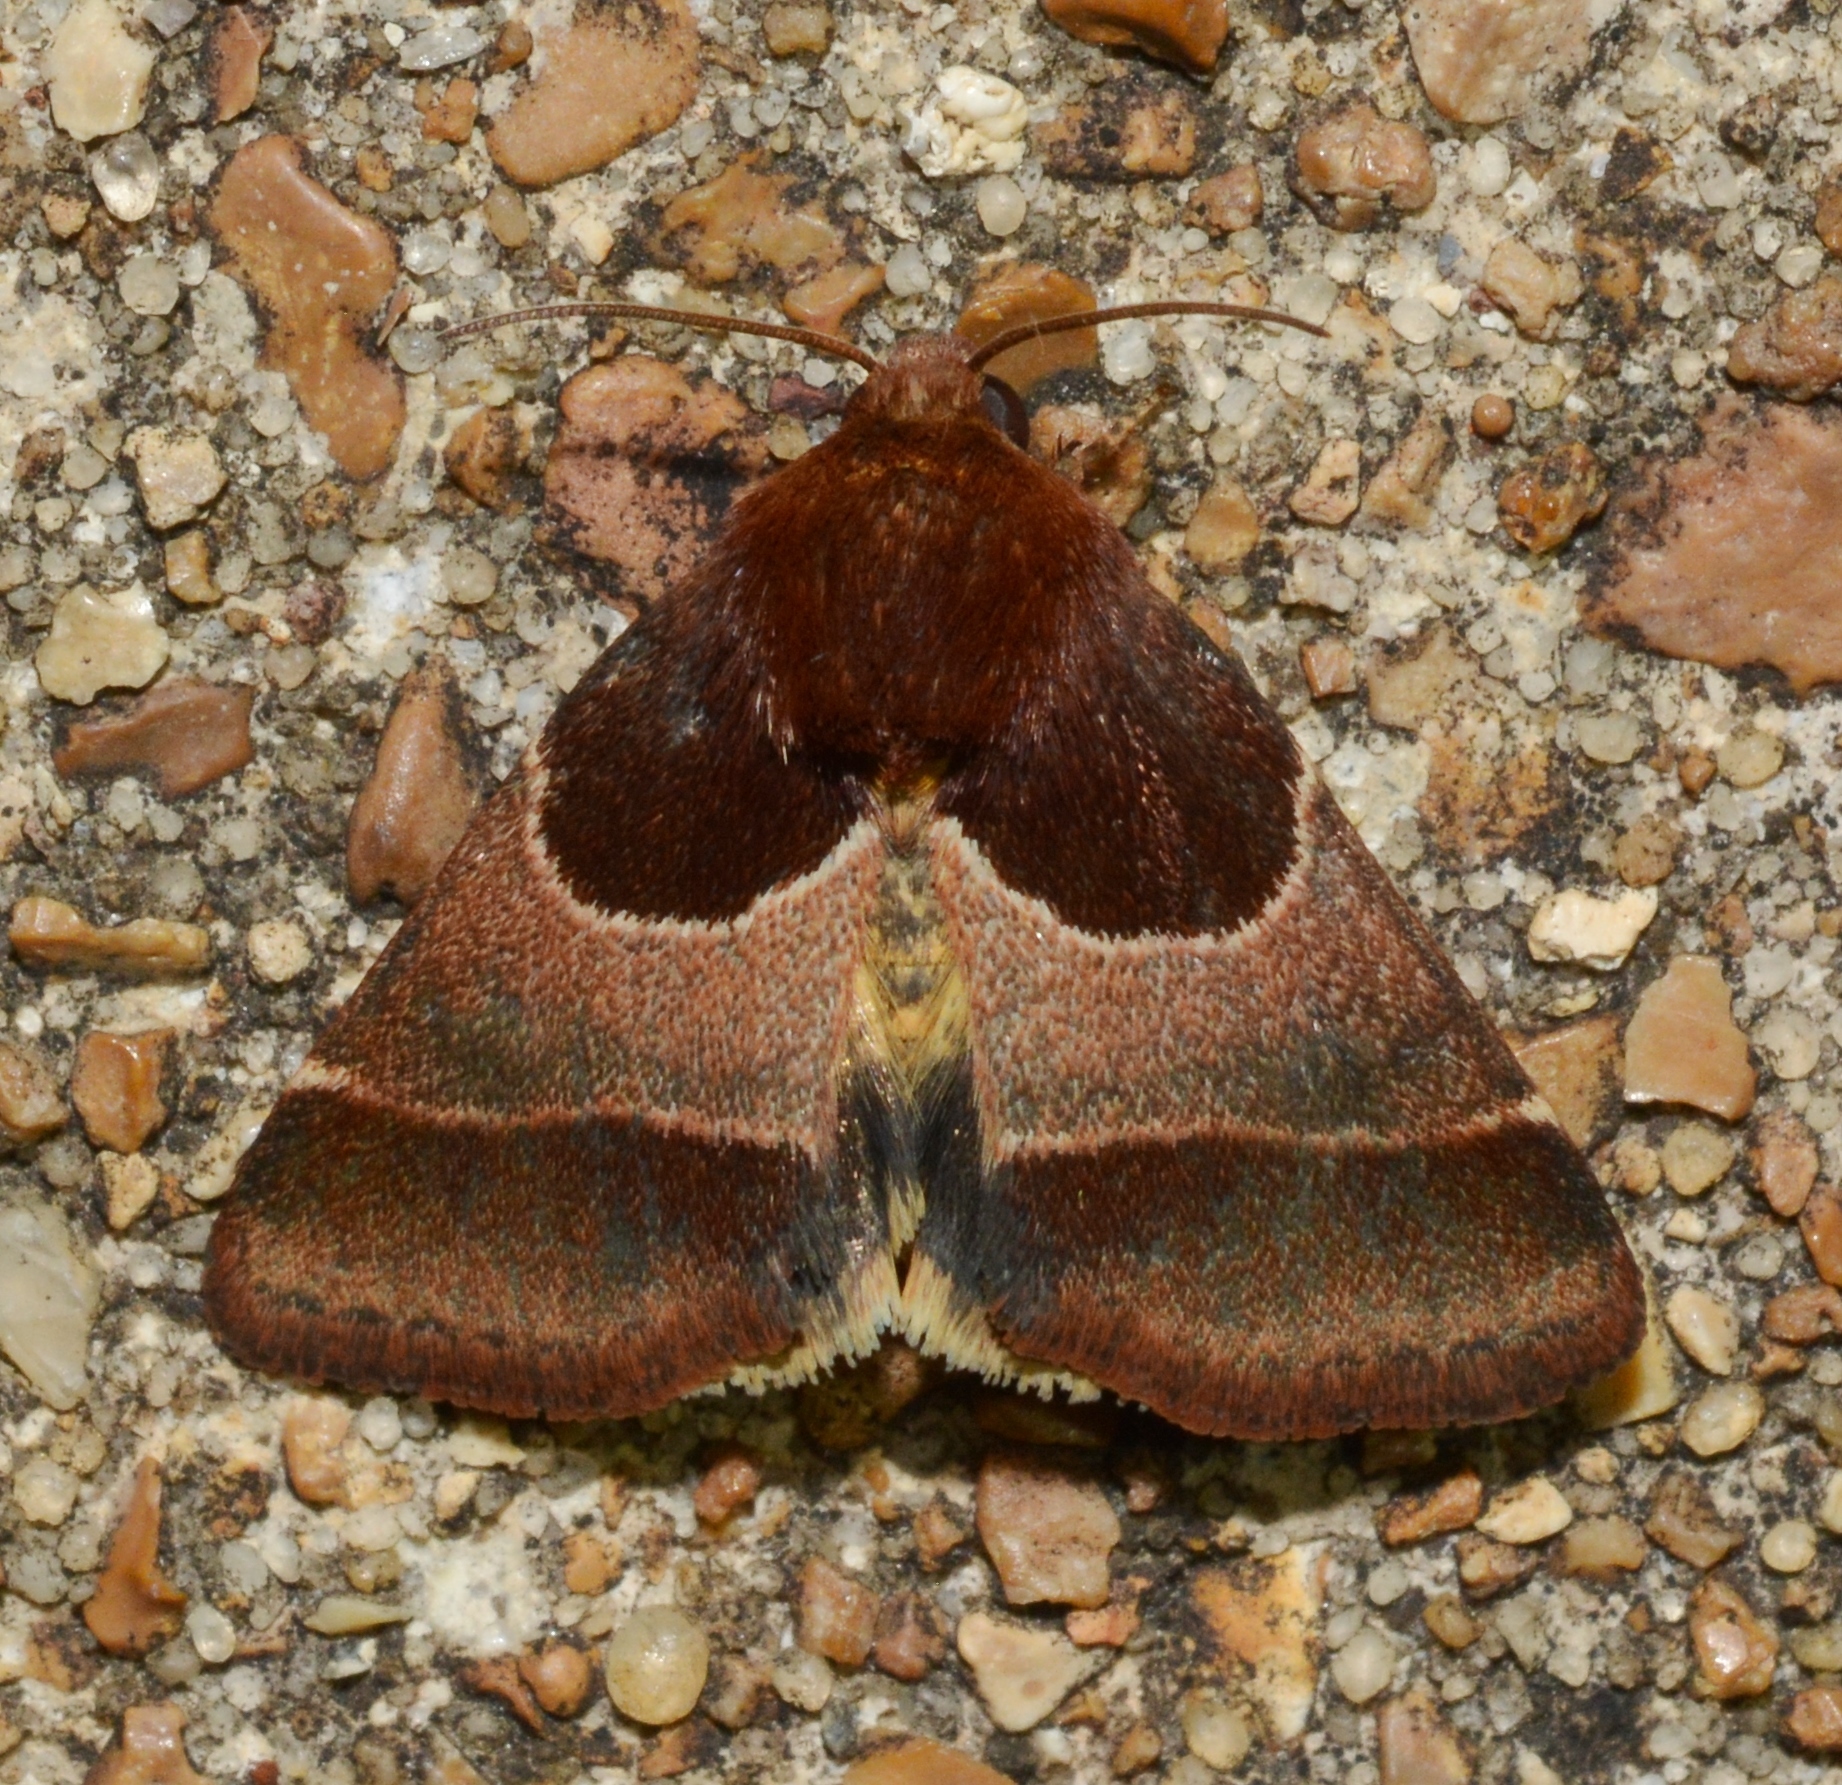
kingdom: Animalia
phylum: Arthropoda
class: Insecta
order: Lepidoptera
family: Noctuidae
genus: Schinia
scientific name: Schinia arcigera
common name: Arcigera flower moth
